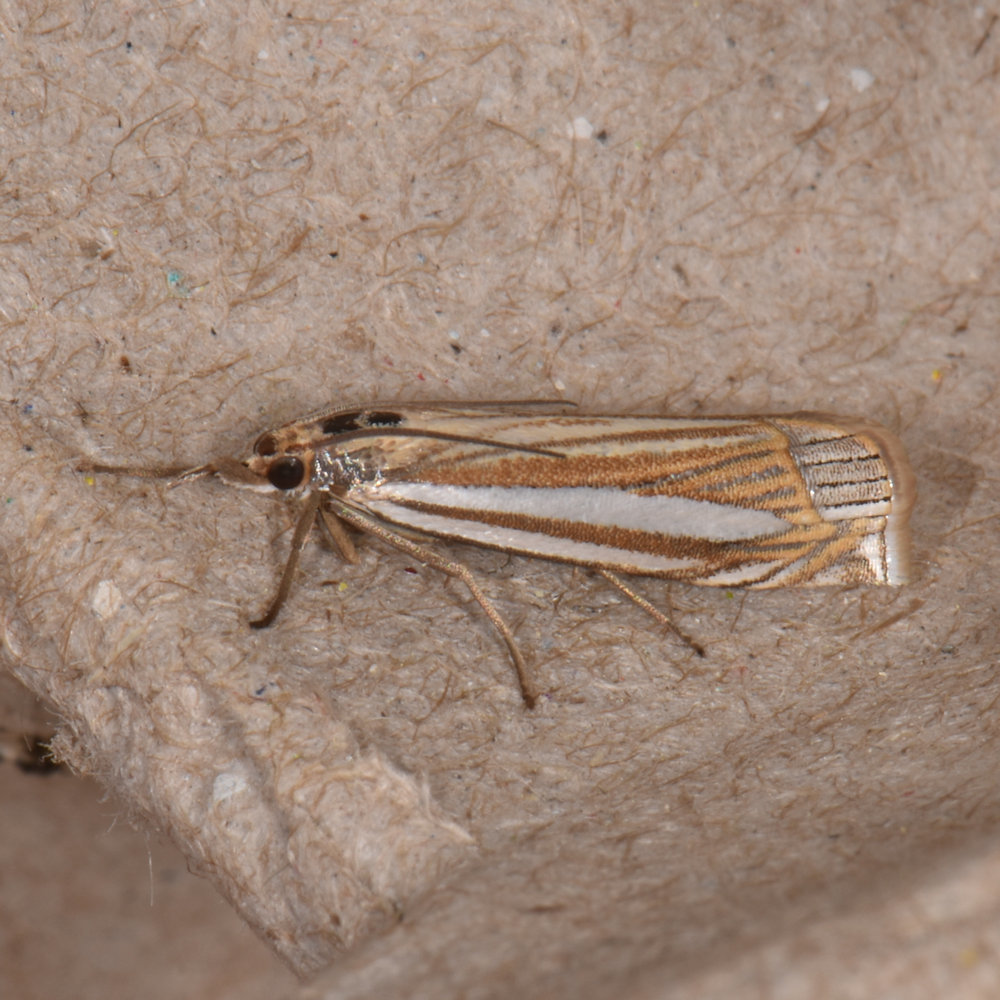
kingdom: Animalia
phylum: Arthropoda
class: Insecta
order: Lepidoptera
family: Crambidae
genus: Crambus
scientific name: Crambus laqueatellus
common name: Eastern grass-veneer
